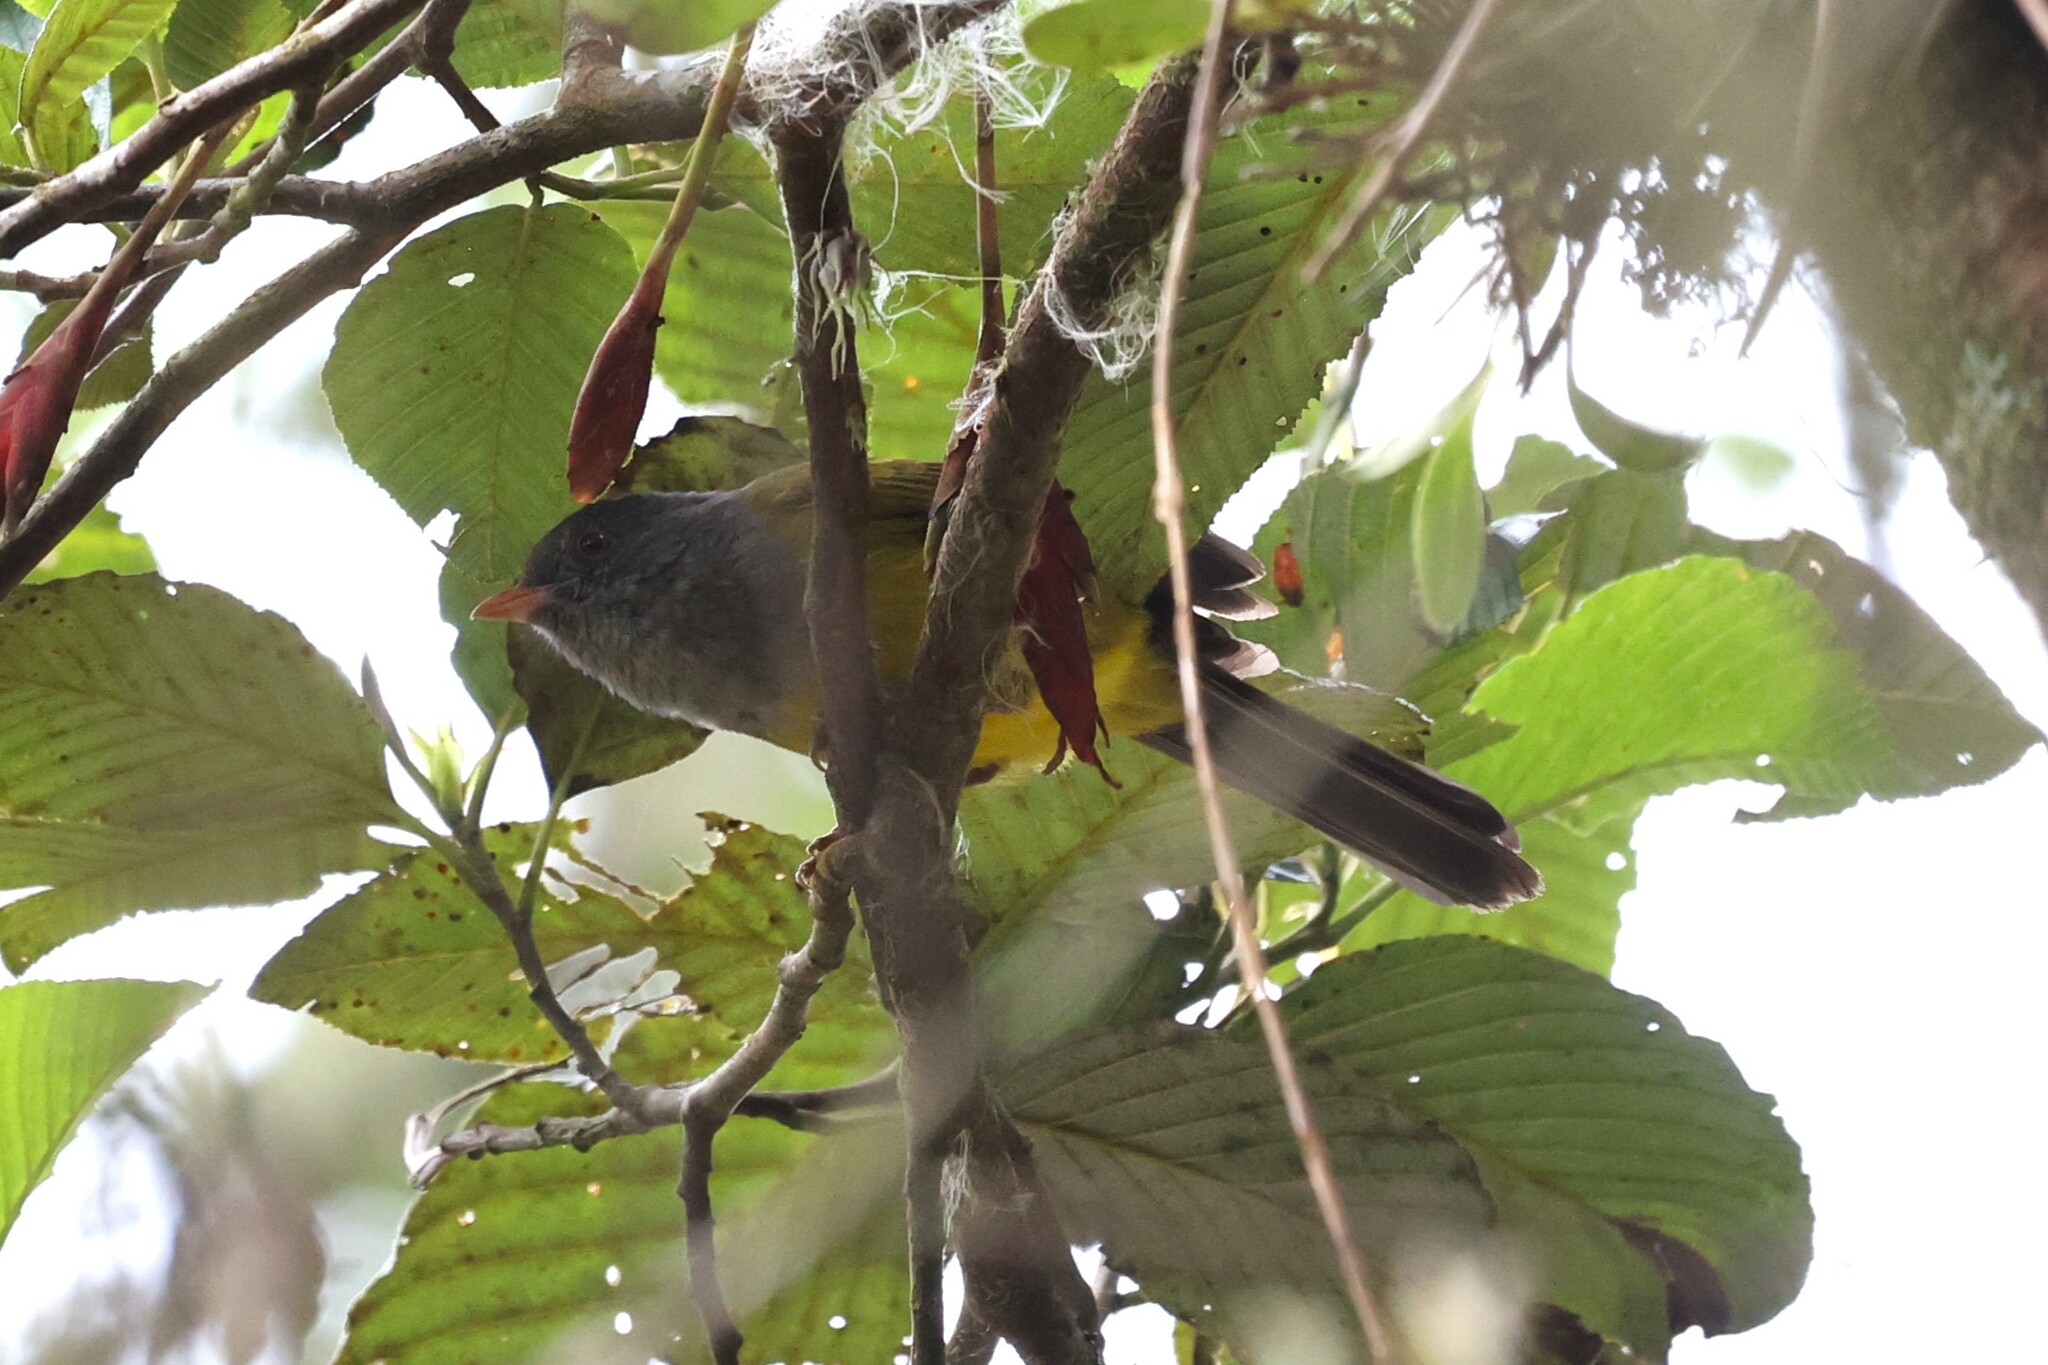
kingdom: Animalia
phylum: Chordata
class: Aves
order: Passeriformes
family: Thraupidae
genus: Cnemoscopus
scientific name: Cnemoscopus rubrirostris
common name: Grey-hooded bush tanager
